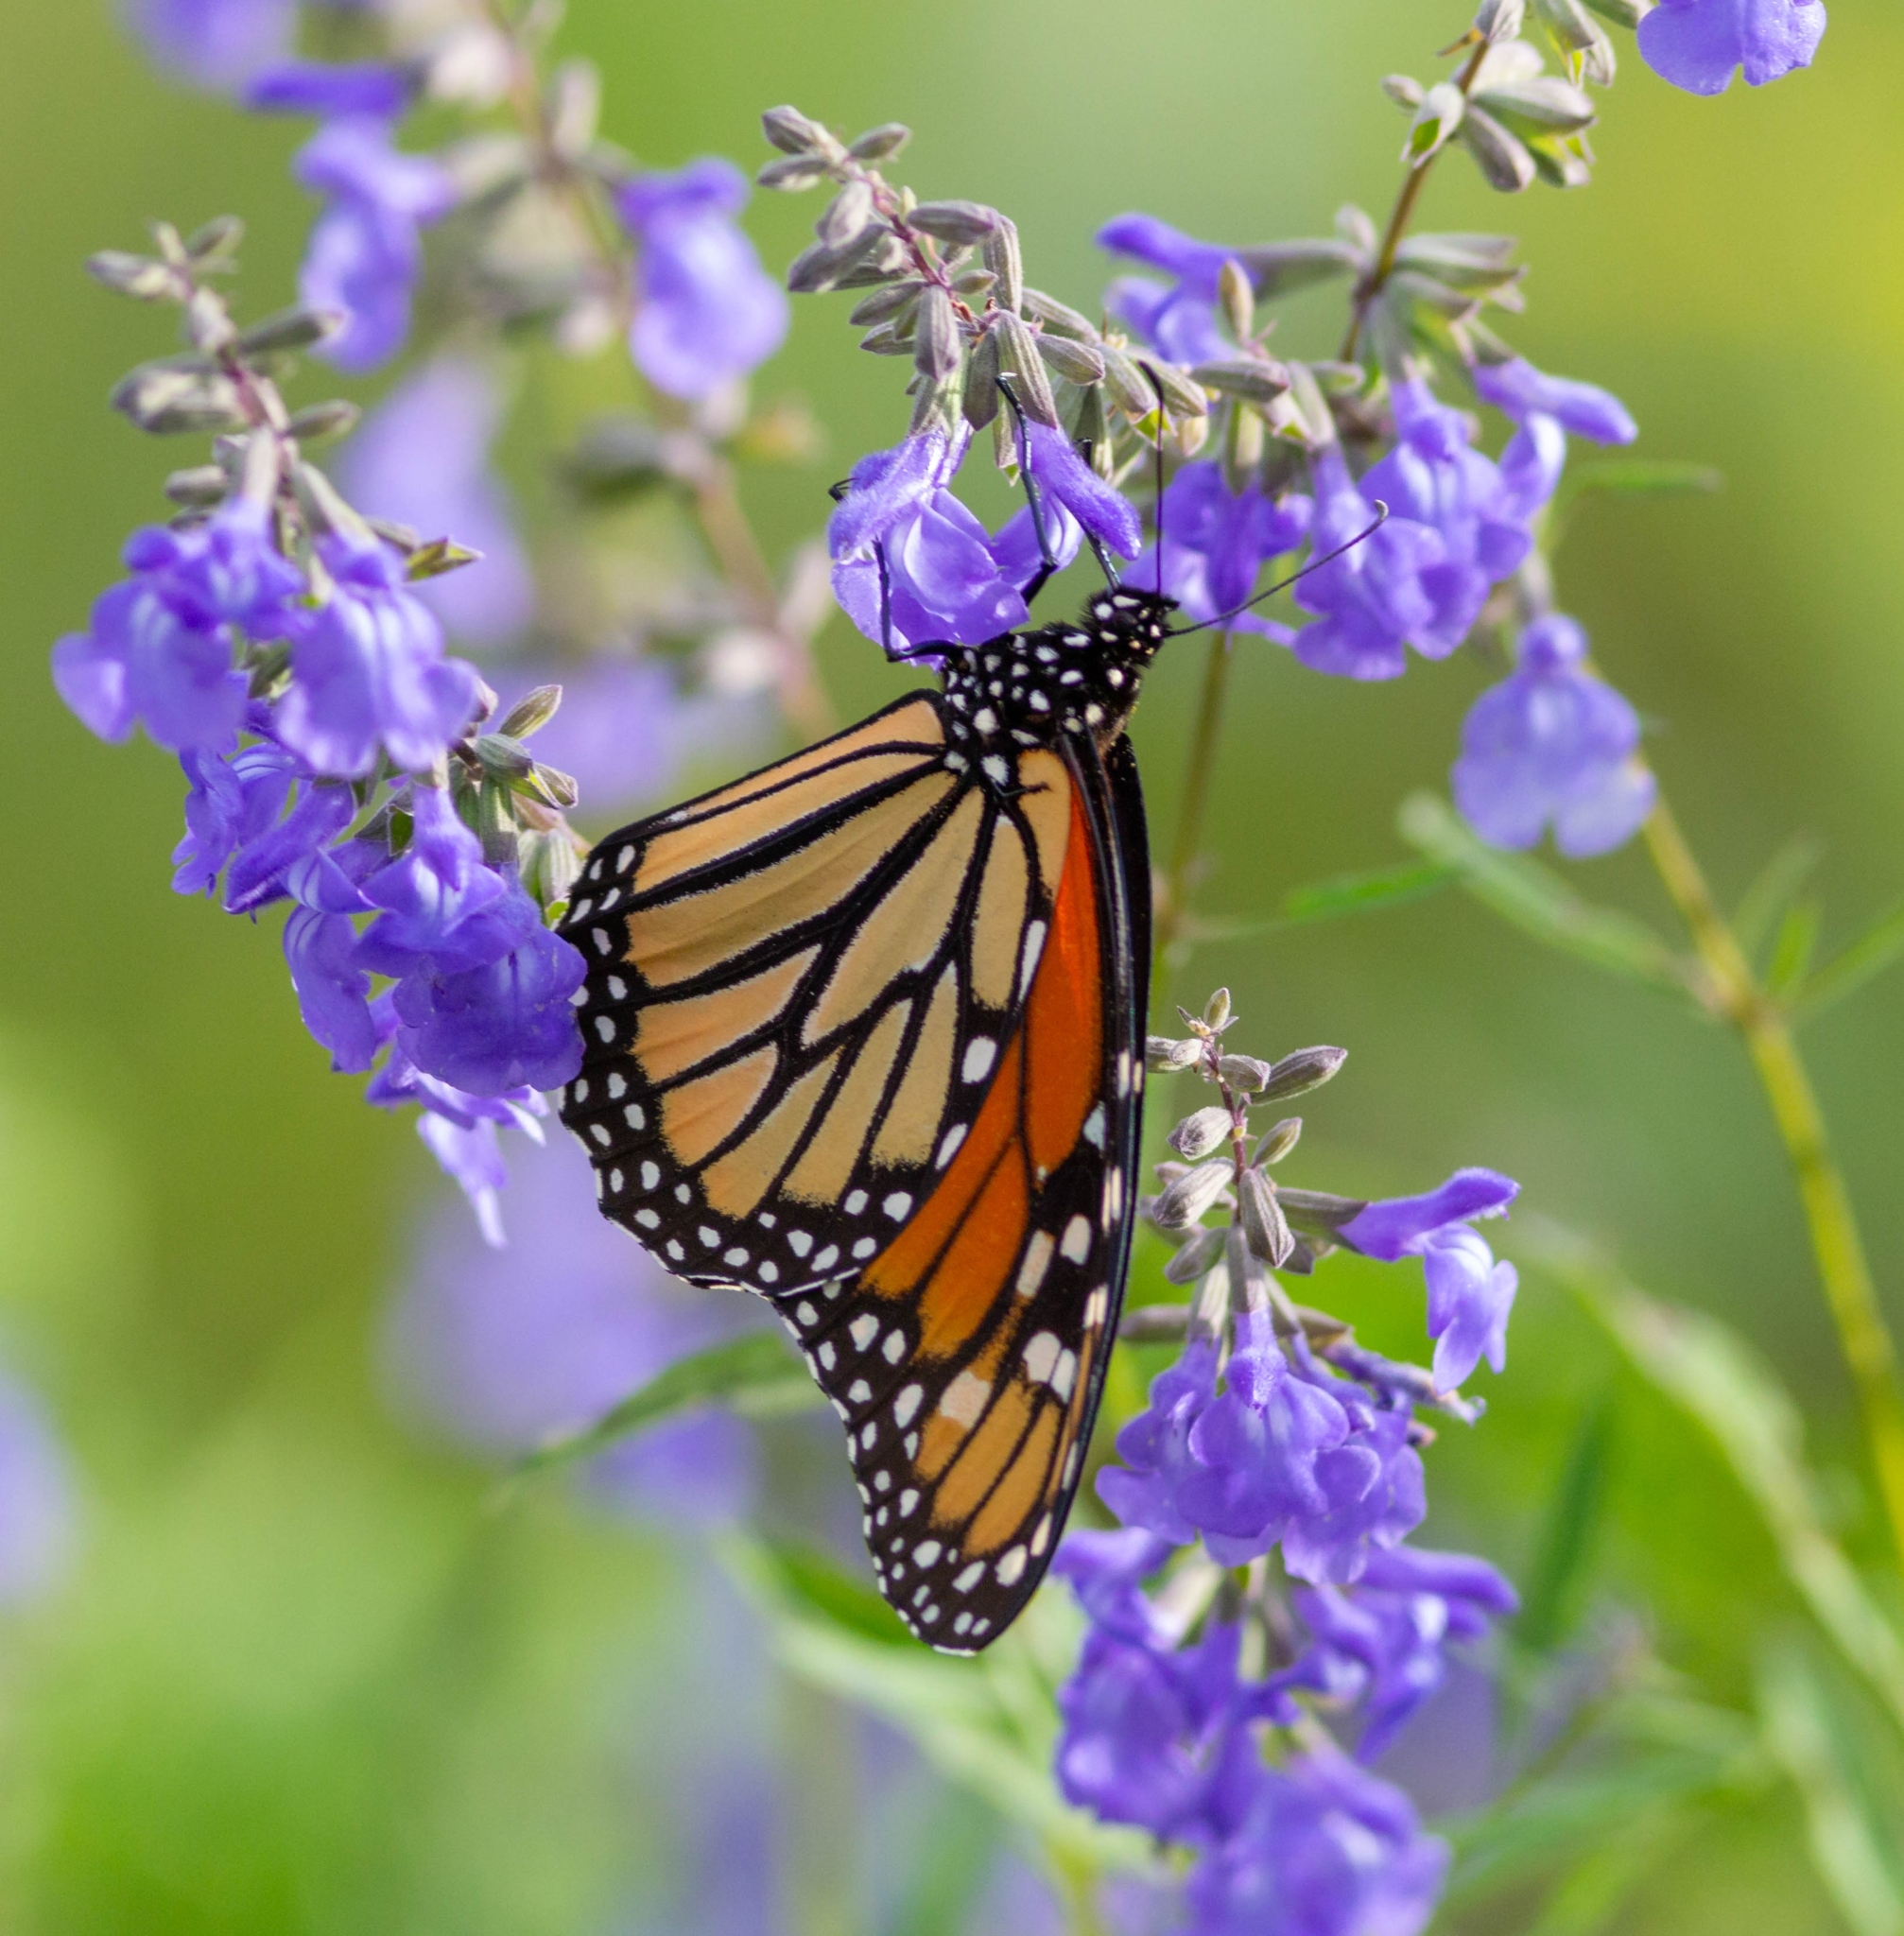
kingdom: Animalia
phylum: Arthropoda
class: Insecta
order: Lepidoptera
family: Nymphalidae
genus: Danaus
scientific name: Danaus plexippus
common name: Monarch
